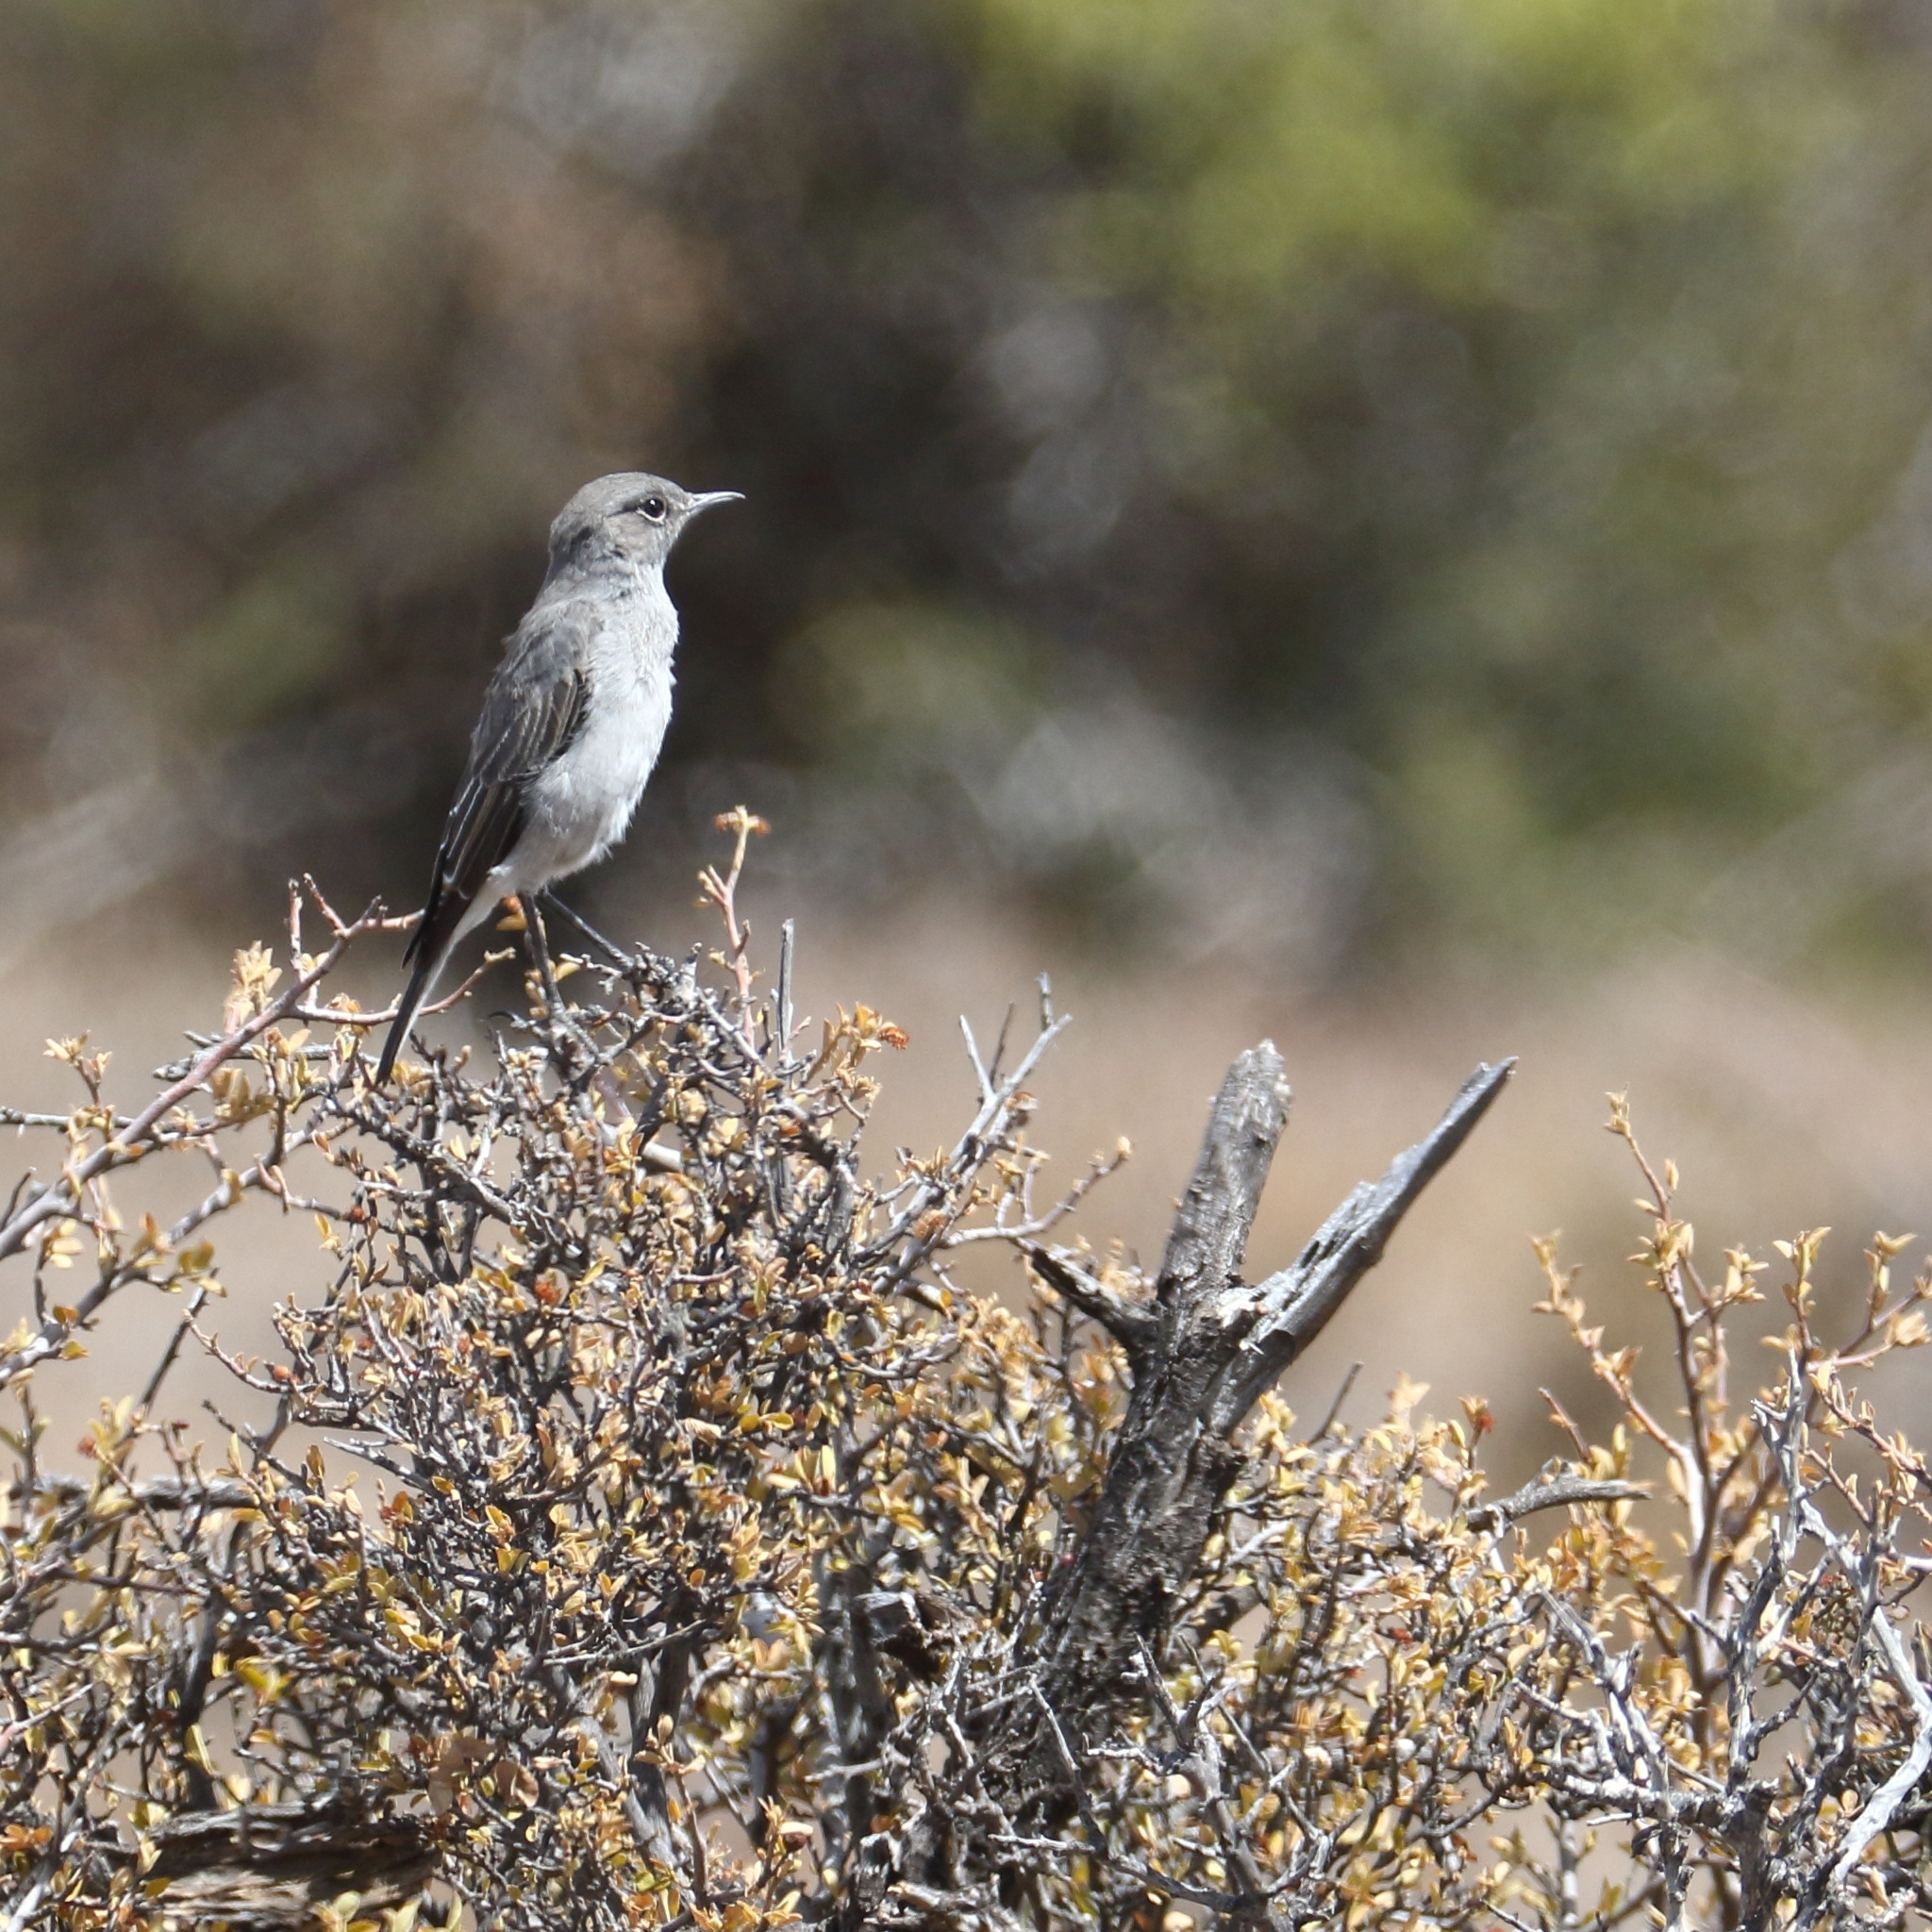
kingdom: Animalia
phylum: Chordata
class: Aves
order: Passeriformes
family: Muscicapidae
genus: Emarginata
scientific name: Emarginata schlegelii
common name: Karoo chat
